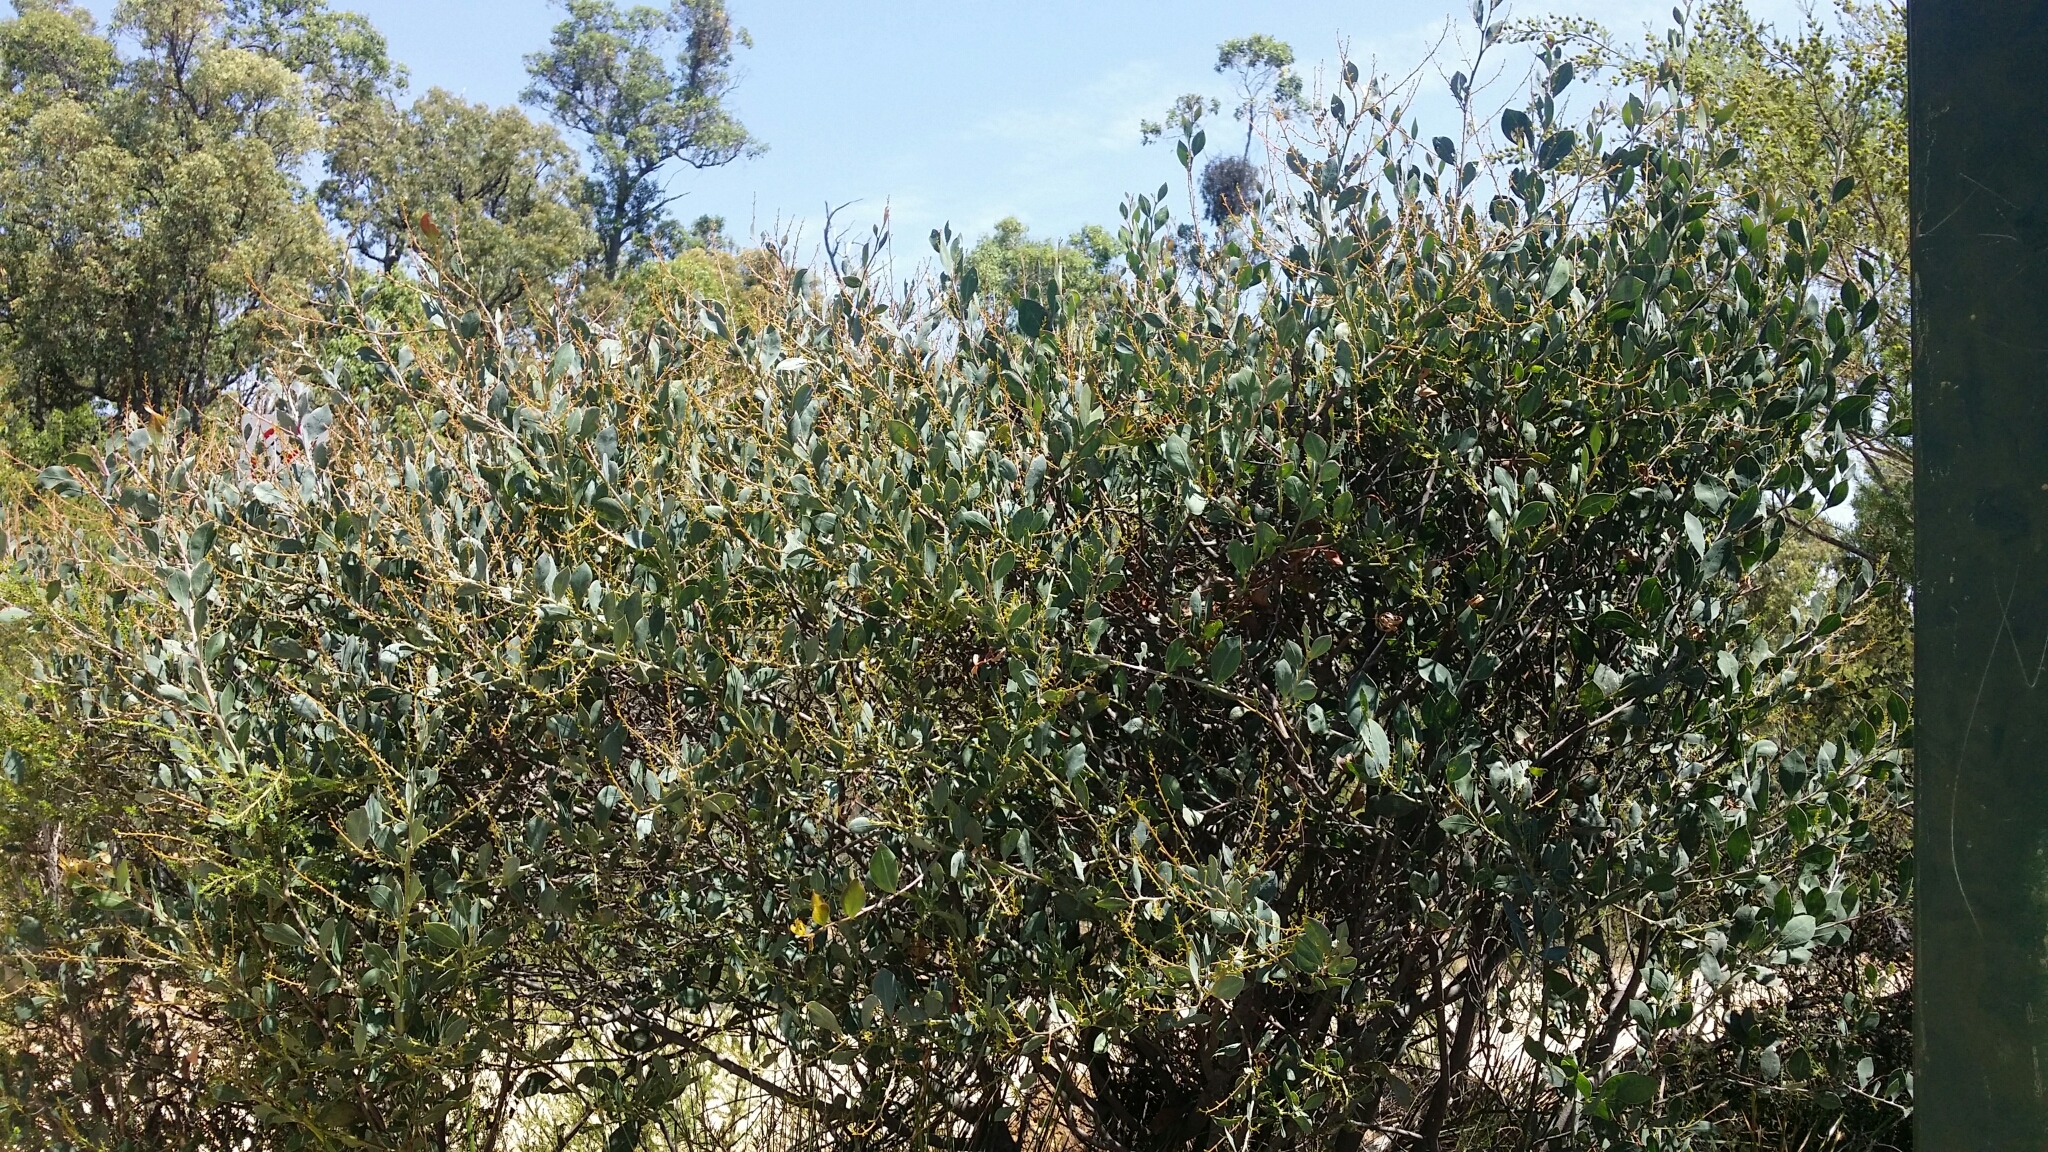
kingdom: Plantae
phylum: Tracheophyta
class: Magnoliopsida
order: Fabales
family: Fabaceae
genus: Acacia
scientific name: Acacia myrtifolia
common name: Myrtle wattle
